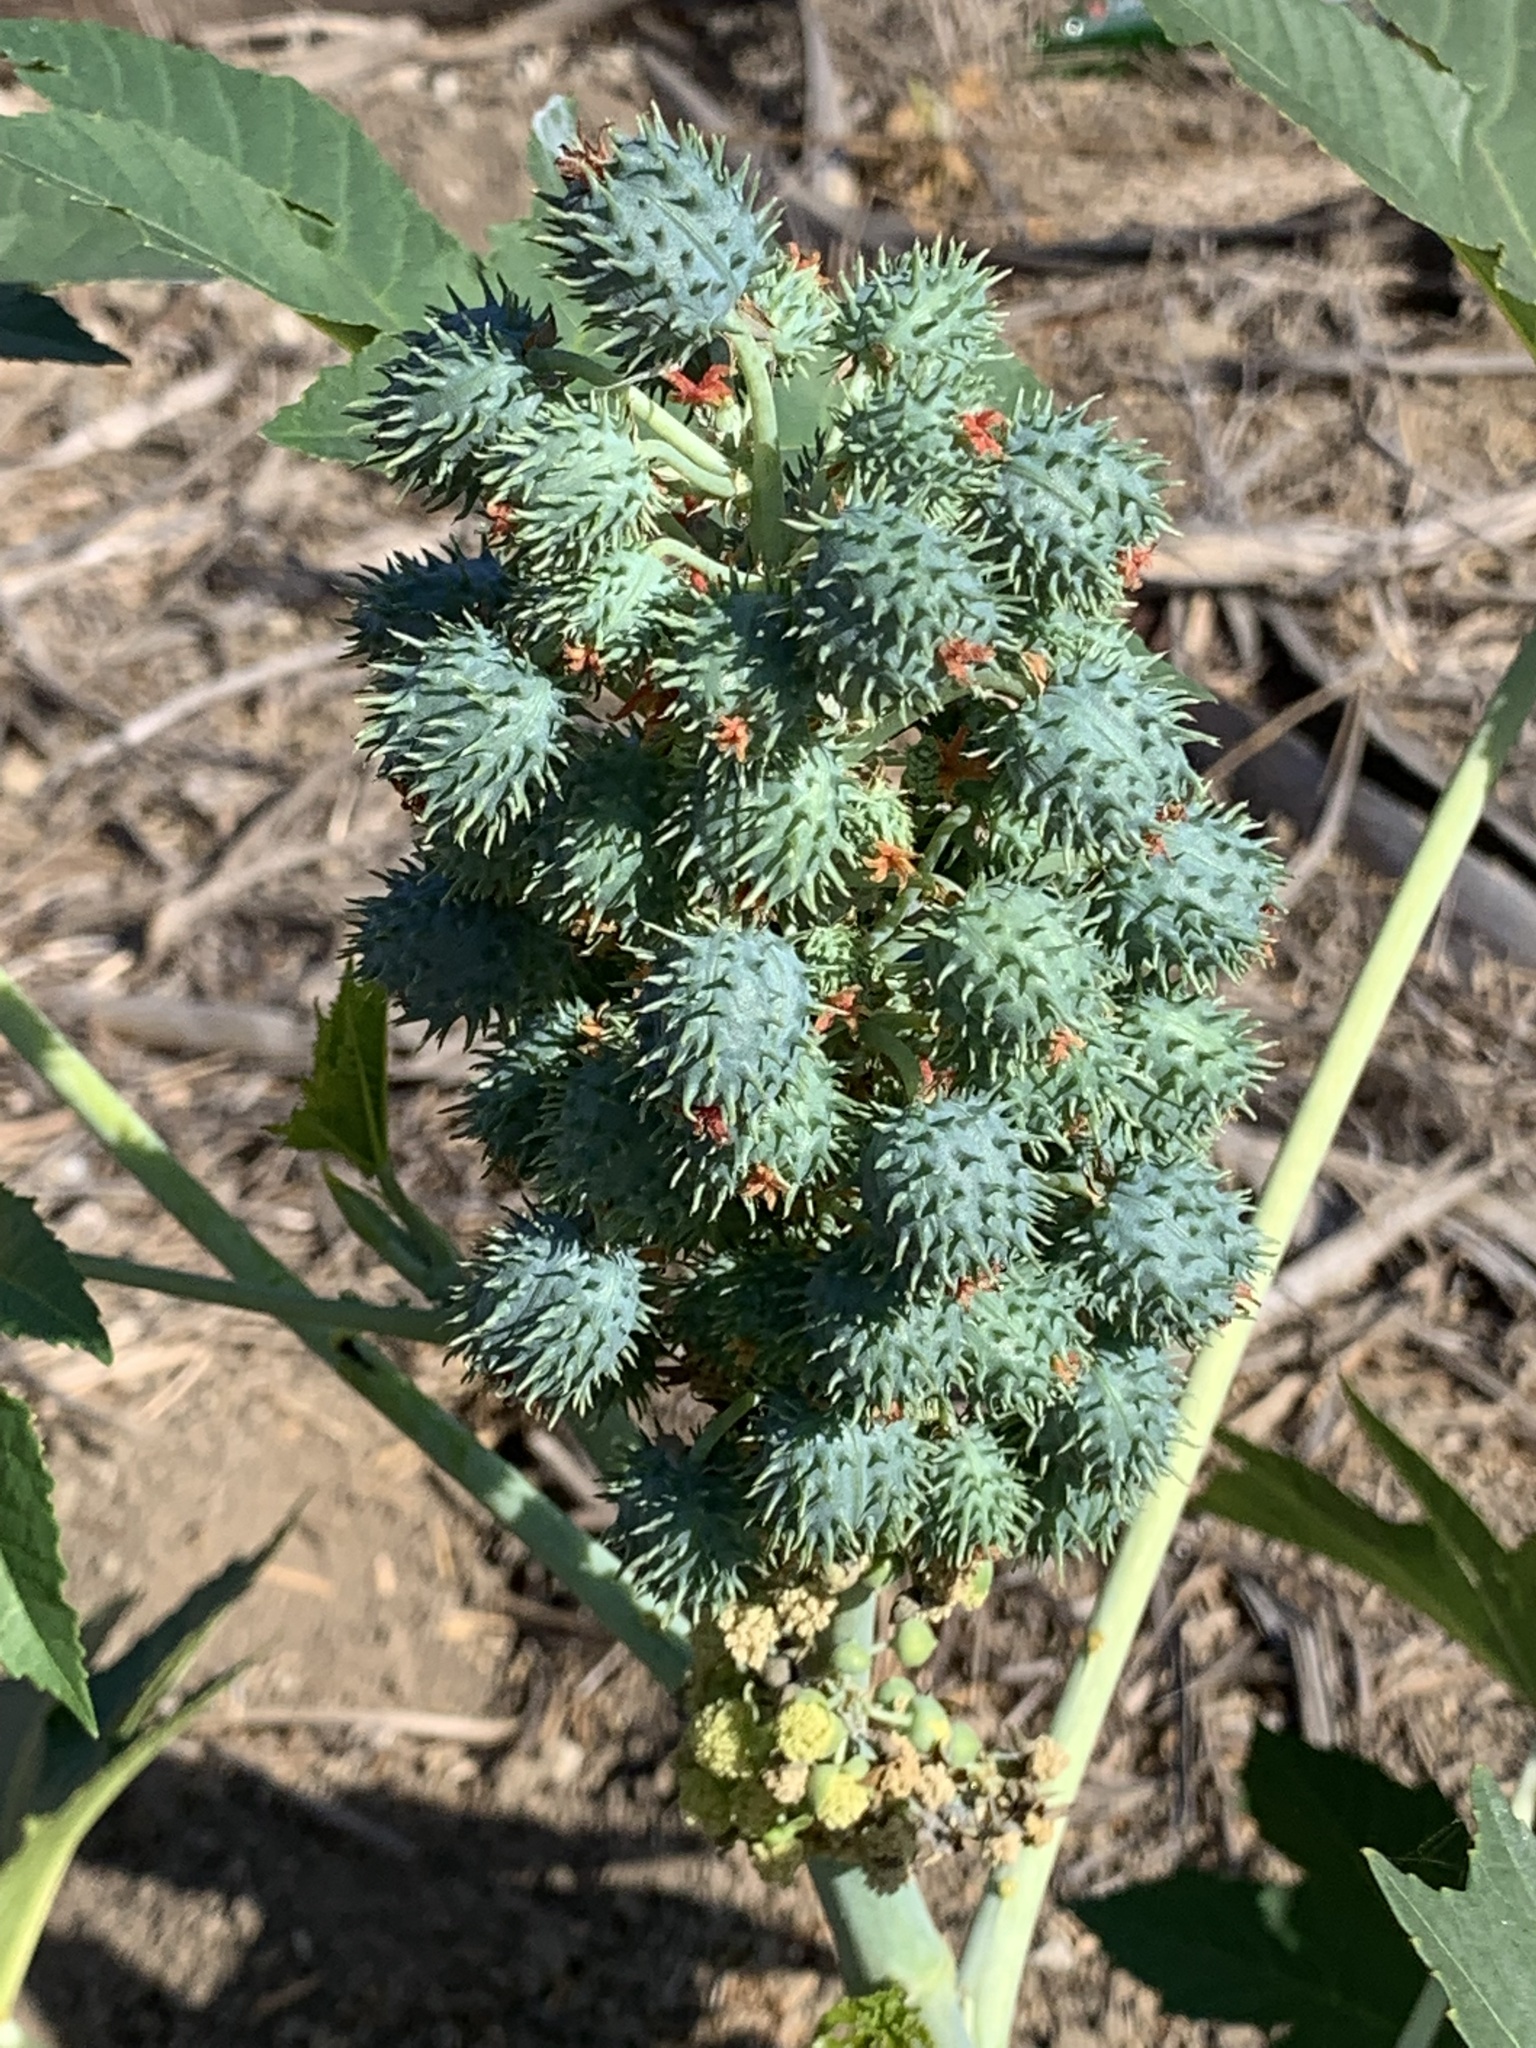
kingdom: Plantae
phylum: Tracheophyta
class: Magnoliopsida
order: Malpighiales
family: Euphorbiaceae
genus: Ricinus
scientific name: Ricinus communis
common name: Castor-oil-plant
